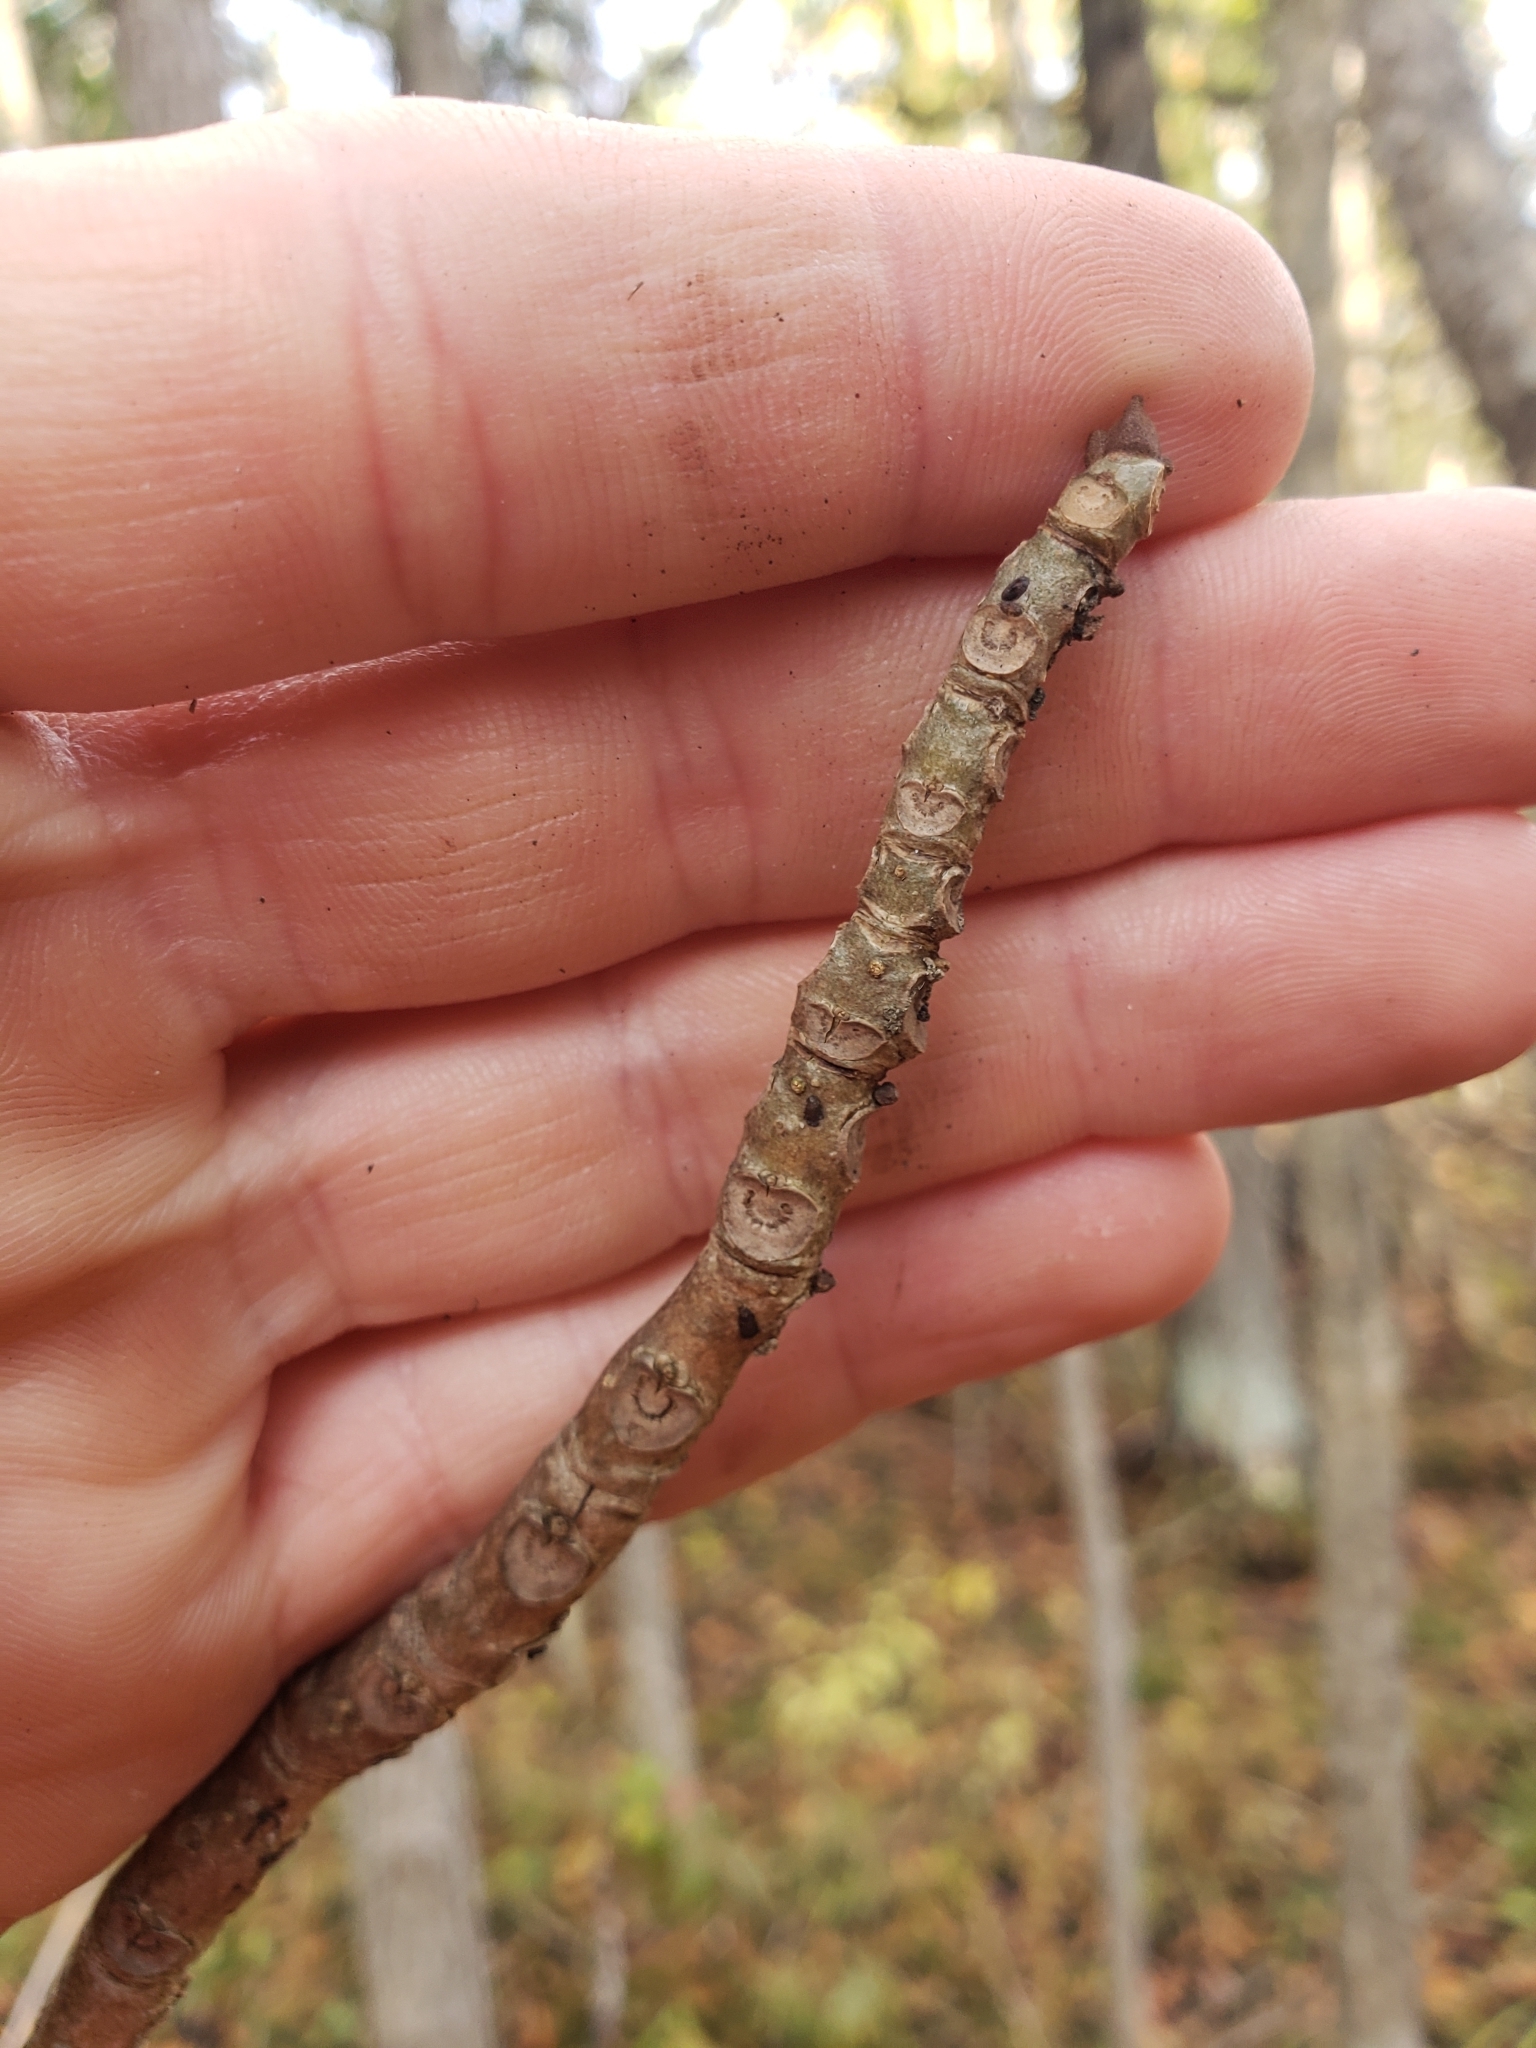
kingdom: Plantae
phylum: Tracheophyta
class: Magnoliopsida
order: Lamiales
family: Oleaceae
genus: Fraxinus
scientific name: Fraxinus nigra
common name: Black ash
